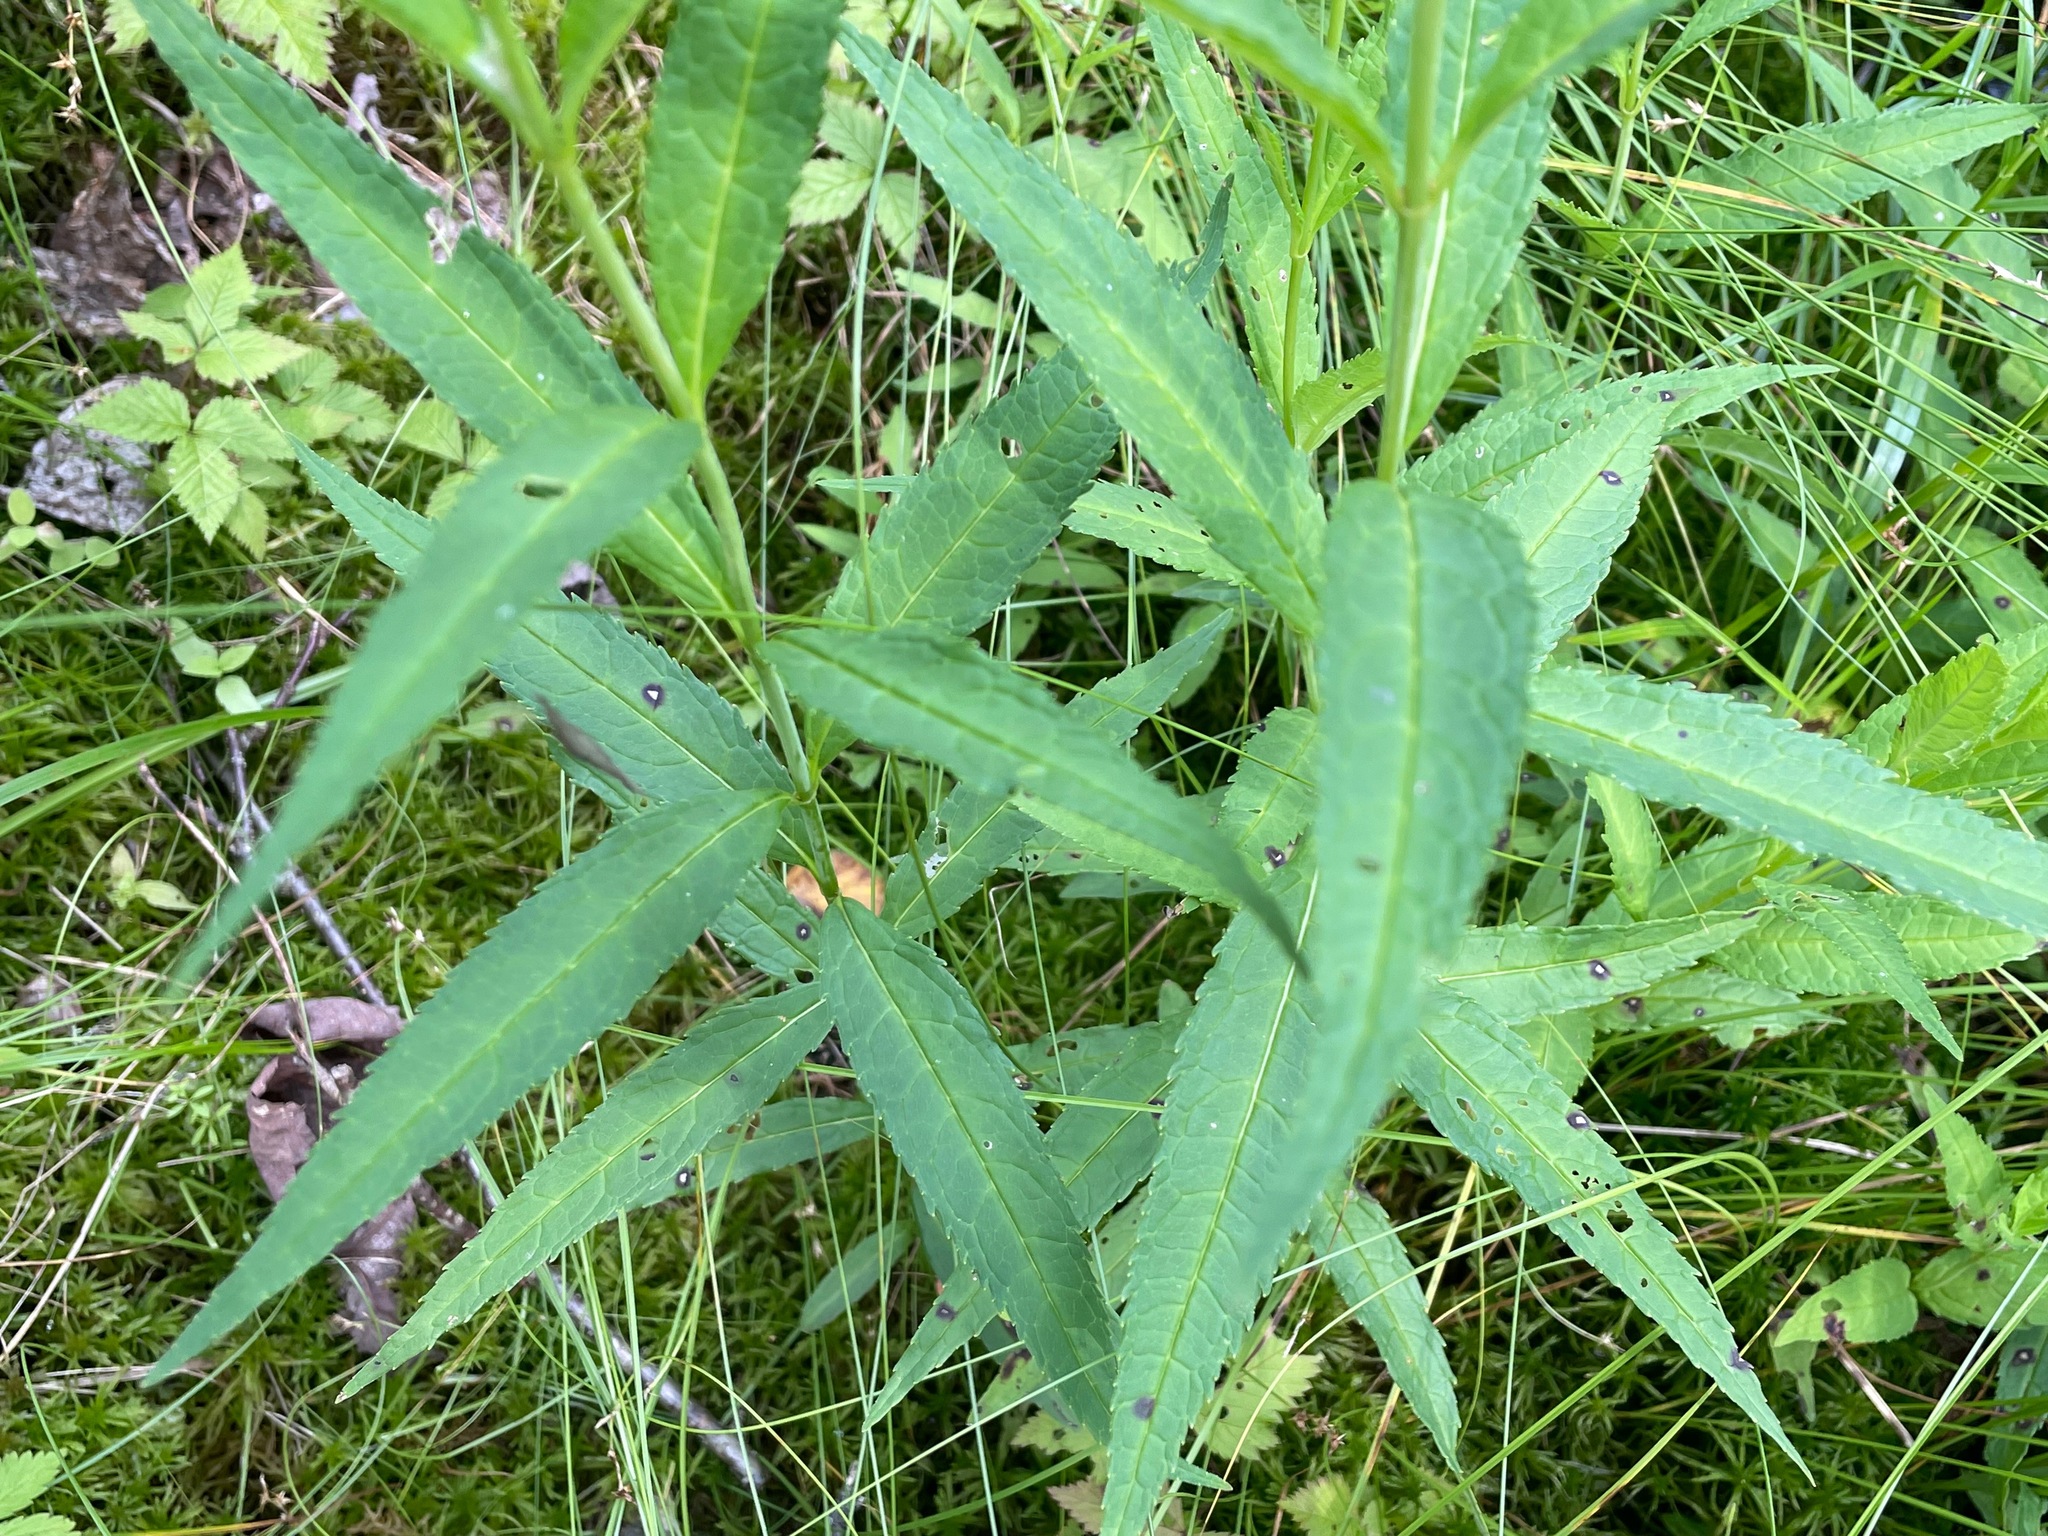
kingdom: Plantae
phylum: Tracheophyta
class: Magnoliopsida
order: Lamiales
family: Plantaginaceae
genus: Chelone
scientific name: Chelone glabra
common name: Snakehead
